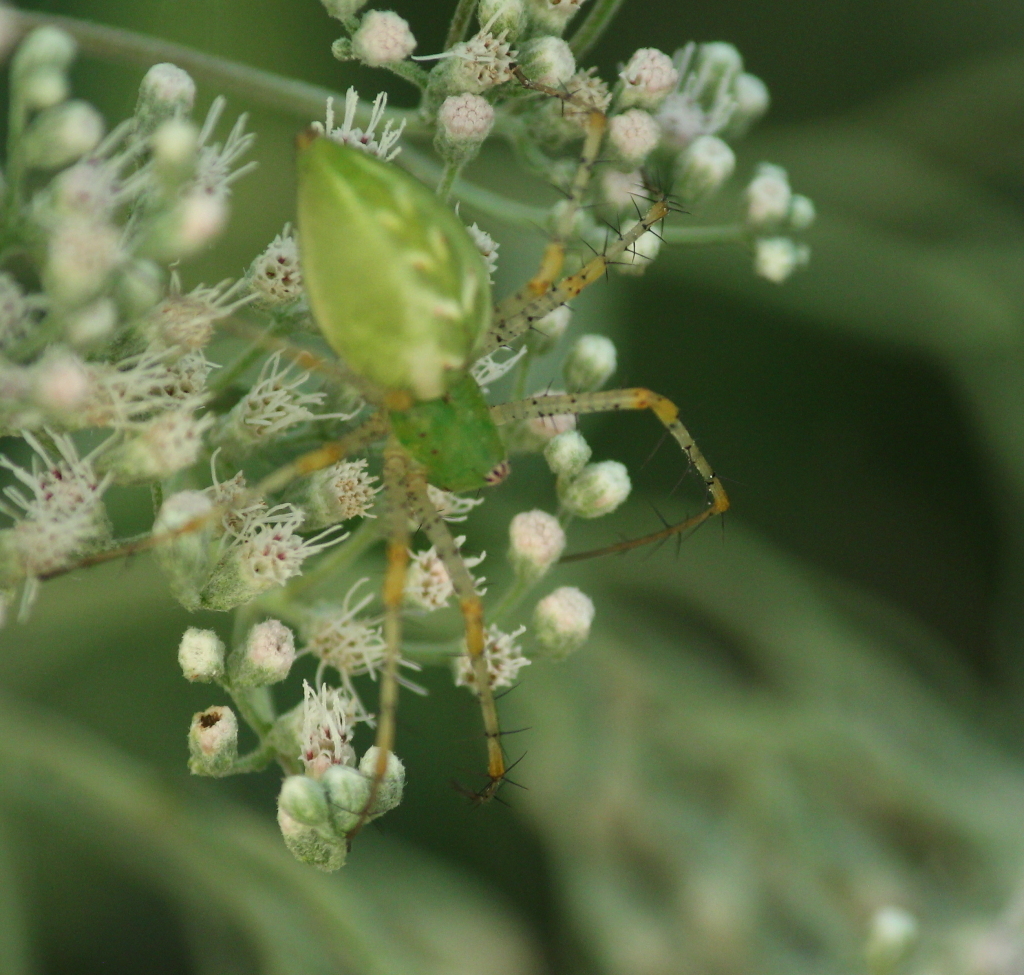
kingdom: Animalia
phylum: Arthropoda
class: Arachnida
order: Araneae
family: Oxyopidae
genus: Peucetia
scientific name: Peucetia viridans
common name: Lynx spiders
